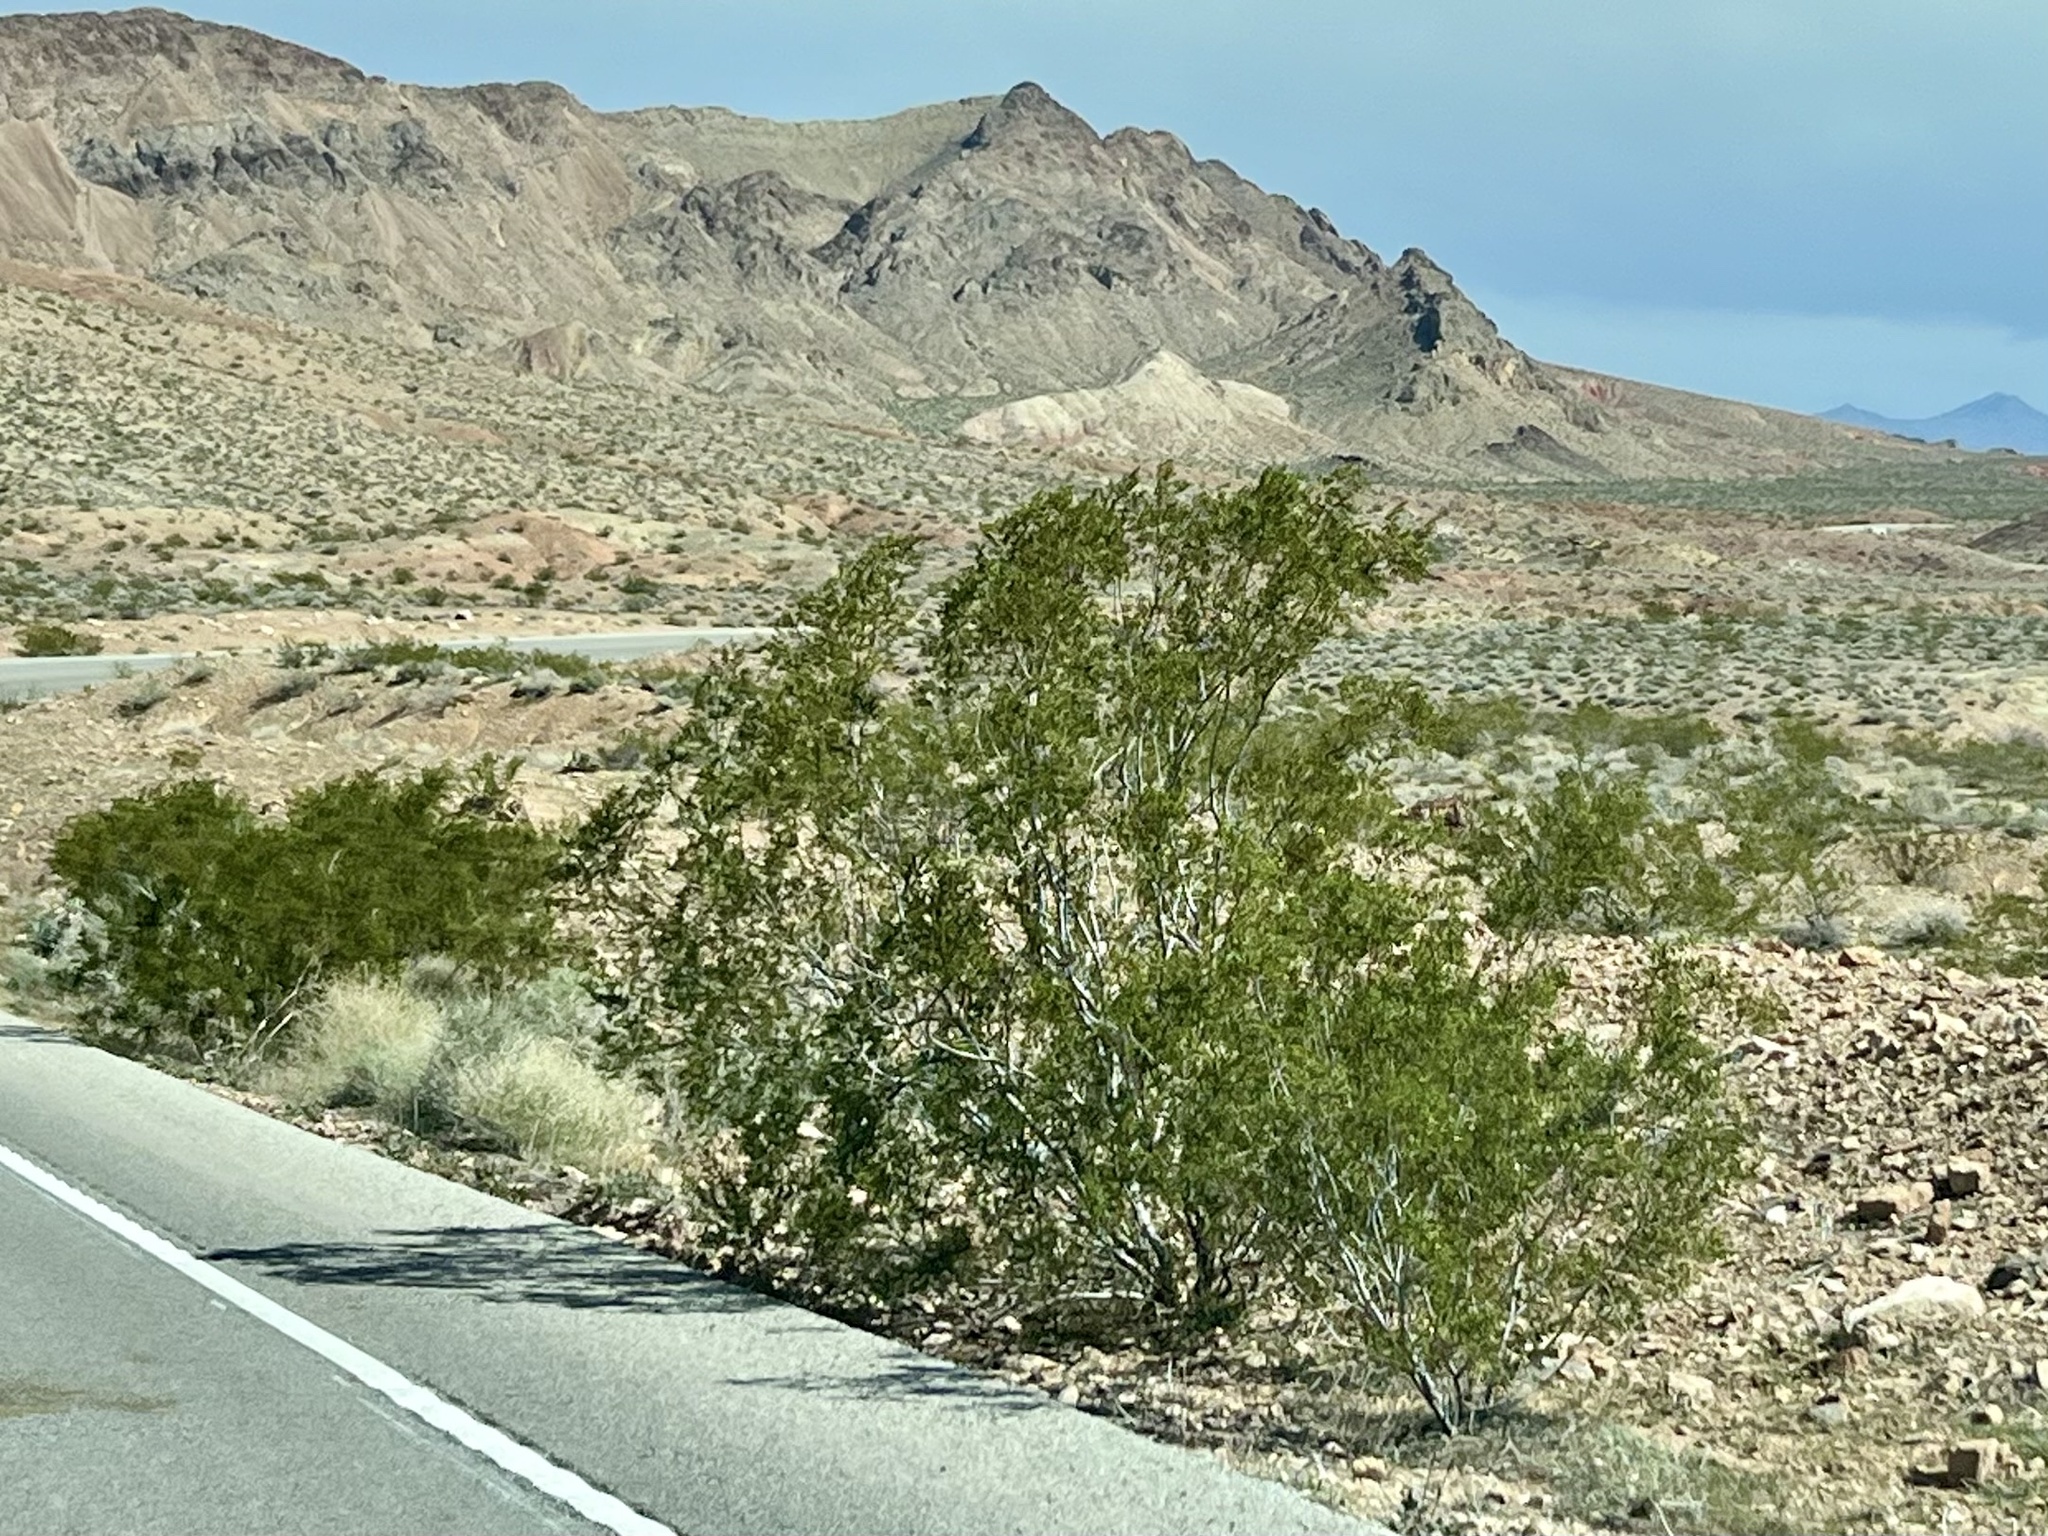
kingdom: Plantae
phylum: Tracheophyta
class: Magnoliopsida
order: Zygophyllales
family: Zygophyllaceae
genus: Larrea
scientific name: Larrea tridentata
